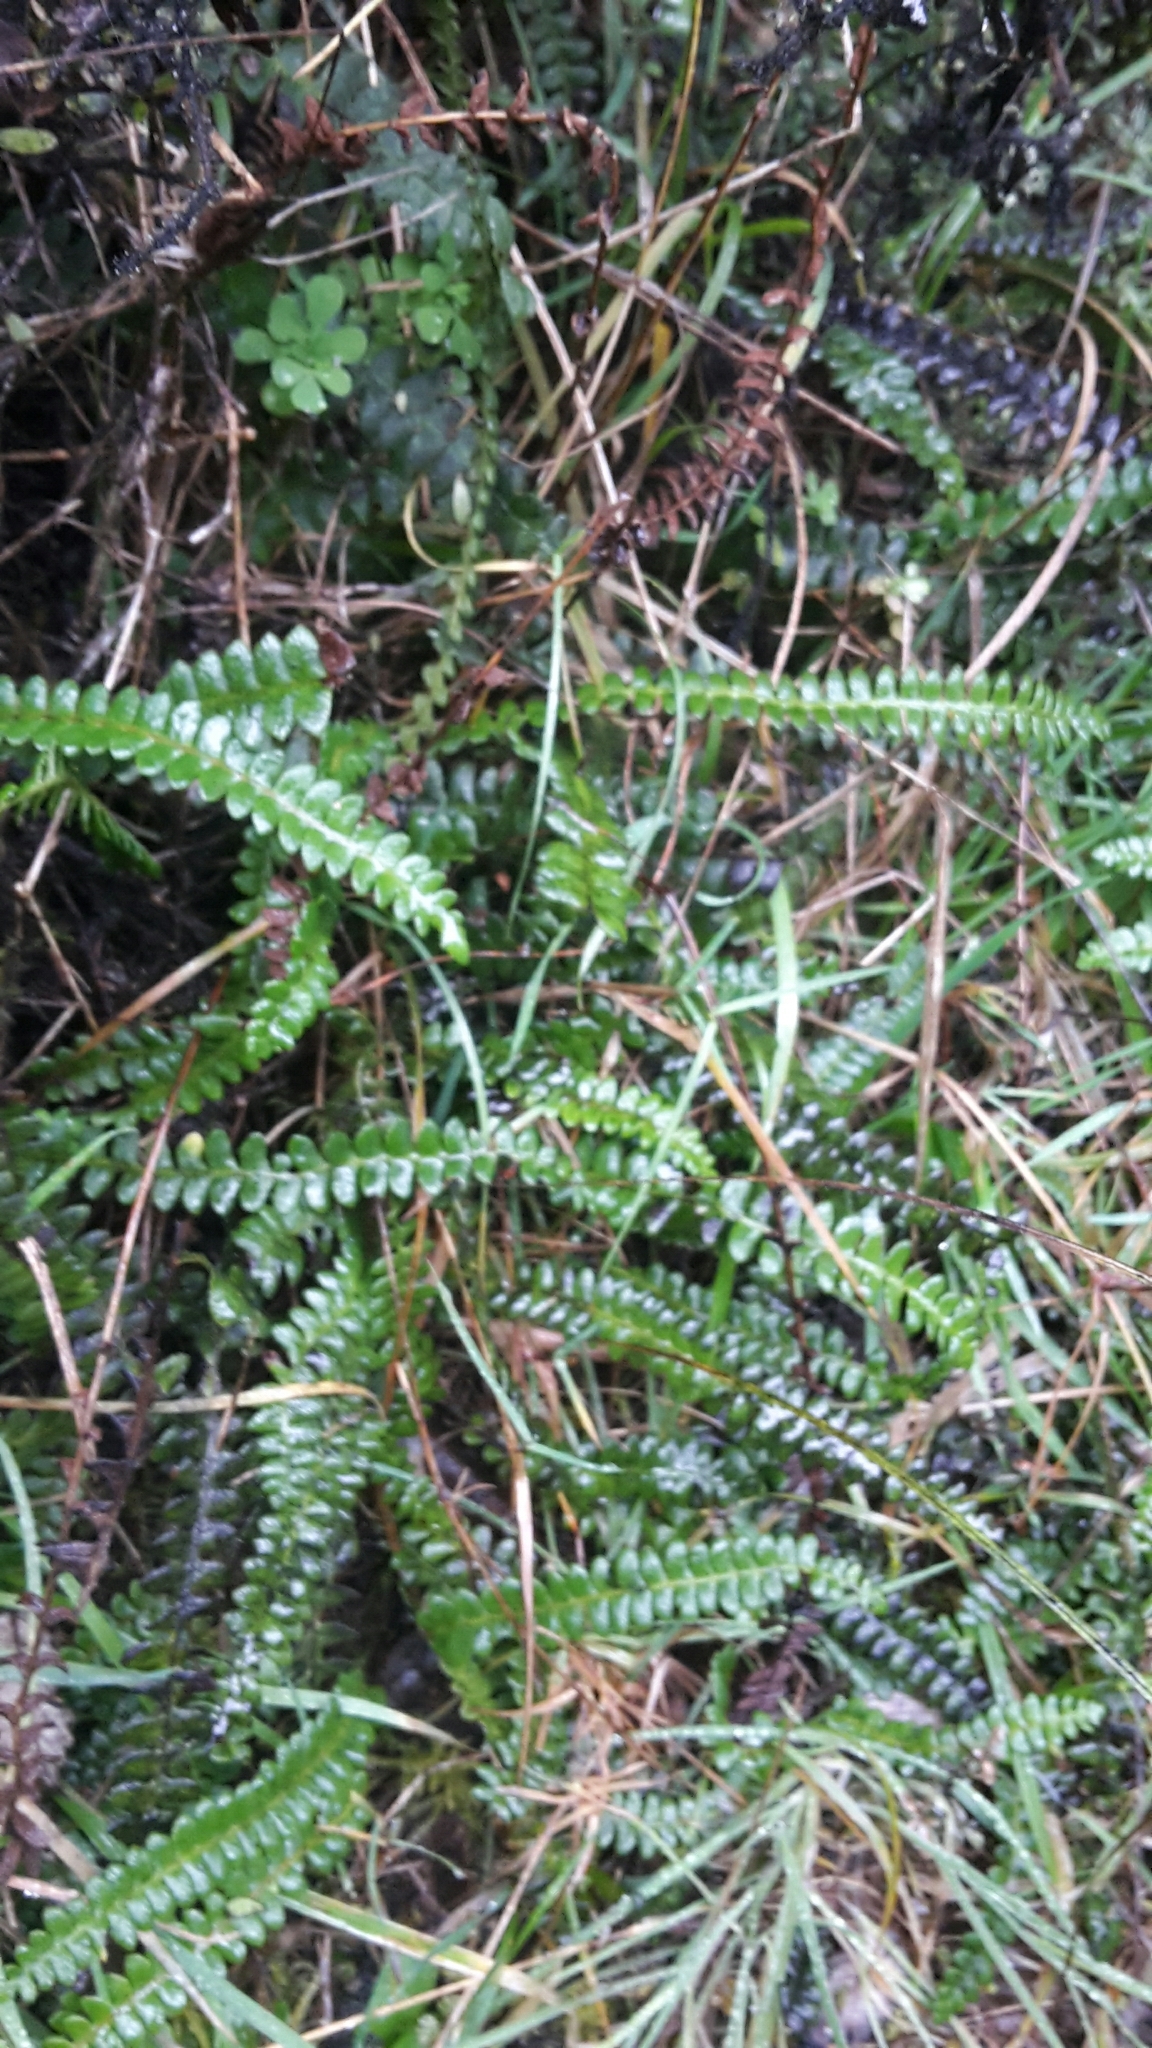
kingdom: Plantae
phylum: Tracheophyta
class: Polypodiopsida
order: Polypodiales
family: Blechnaceae
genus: Austroblechnum
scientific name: Austroblechnum penna-marina
